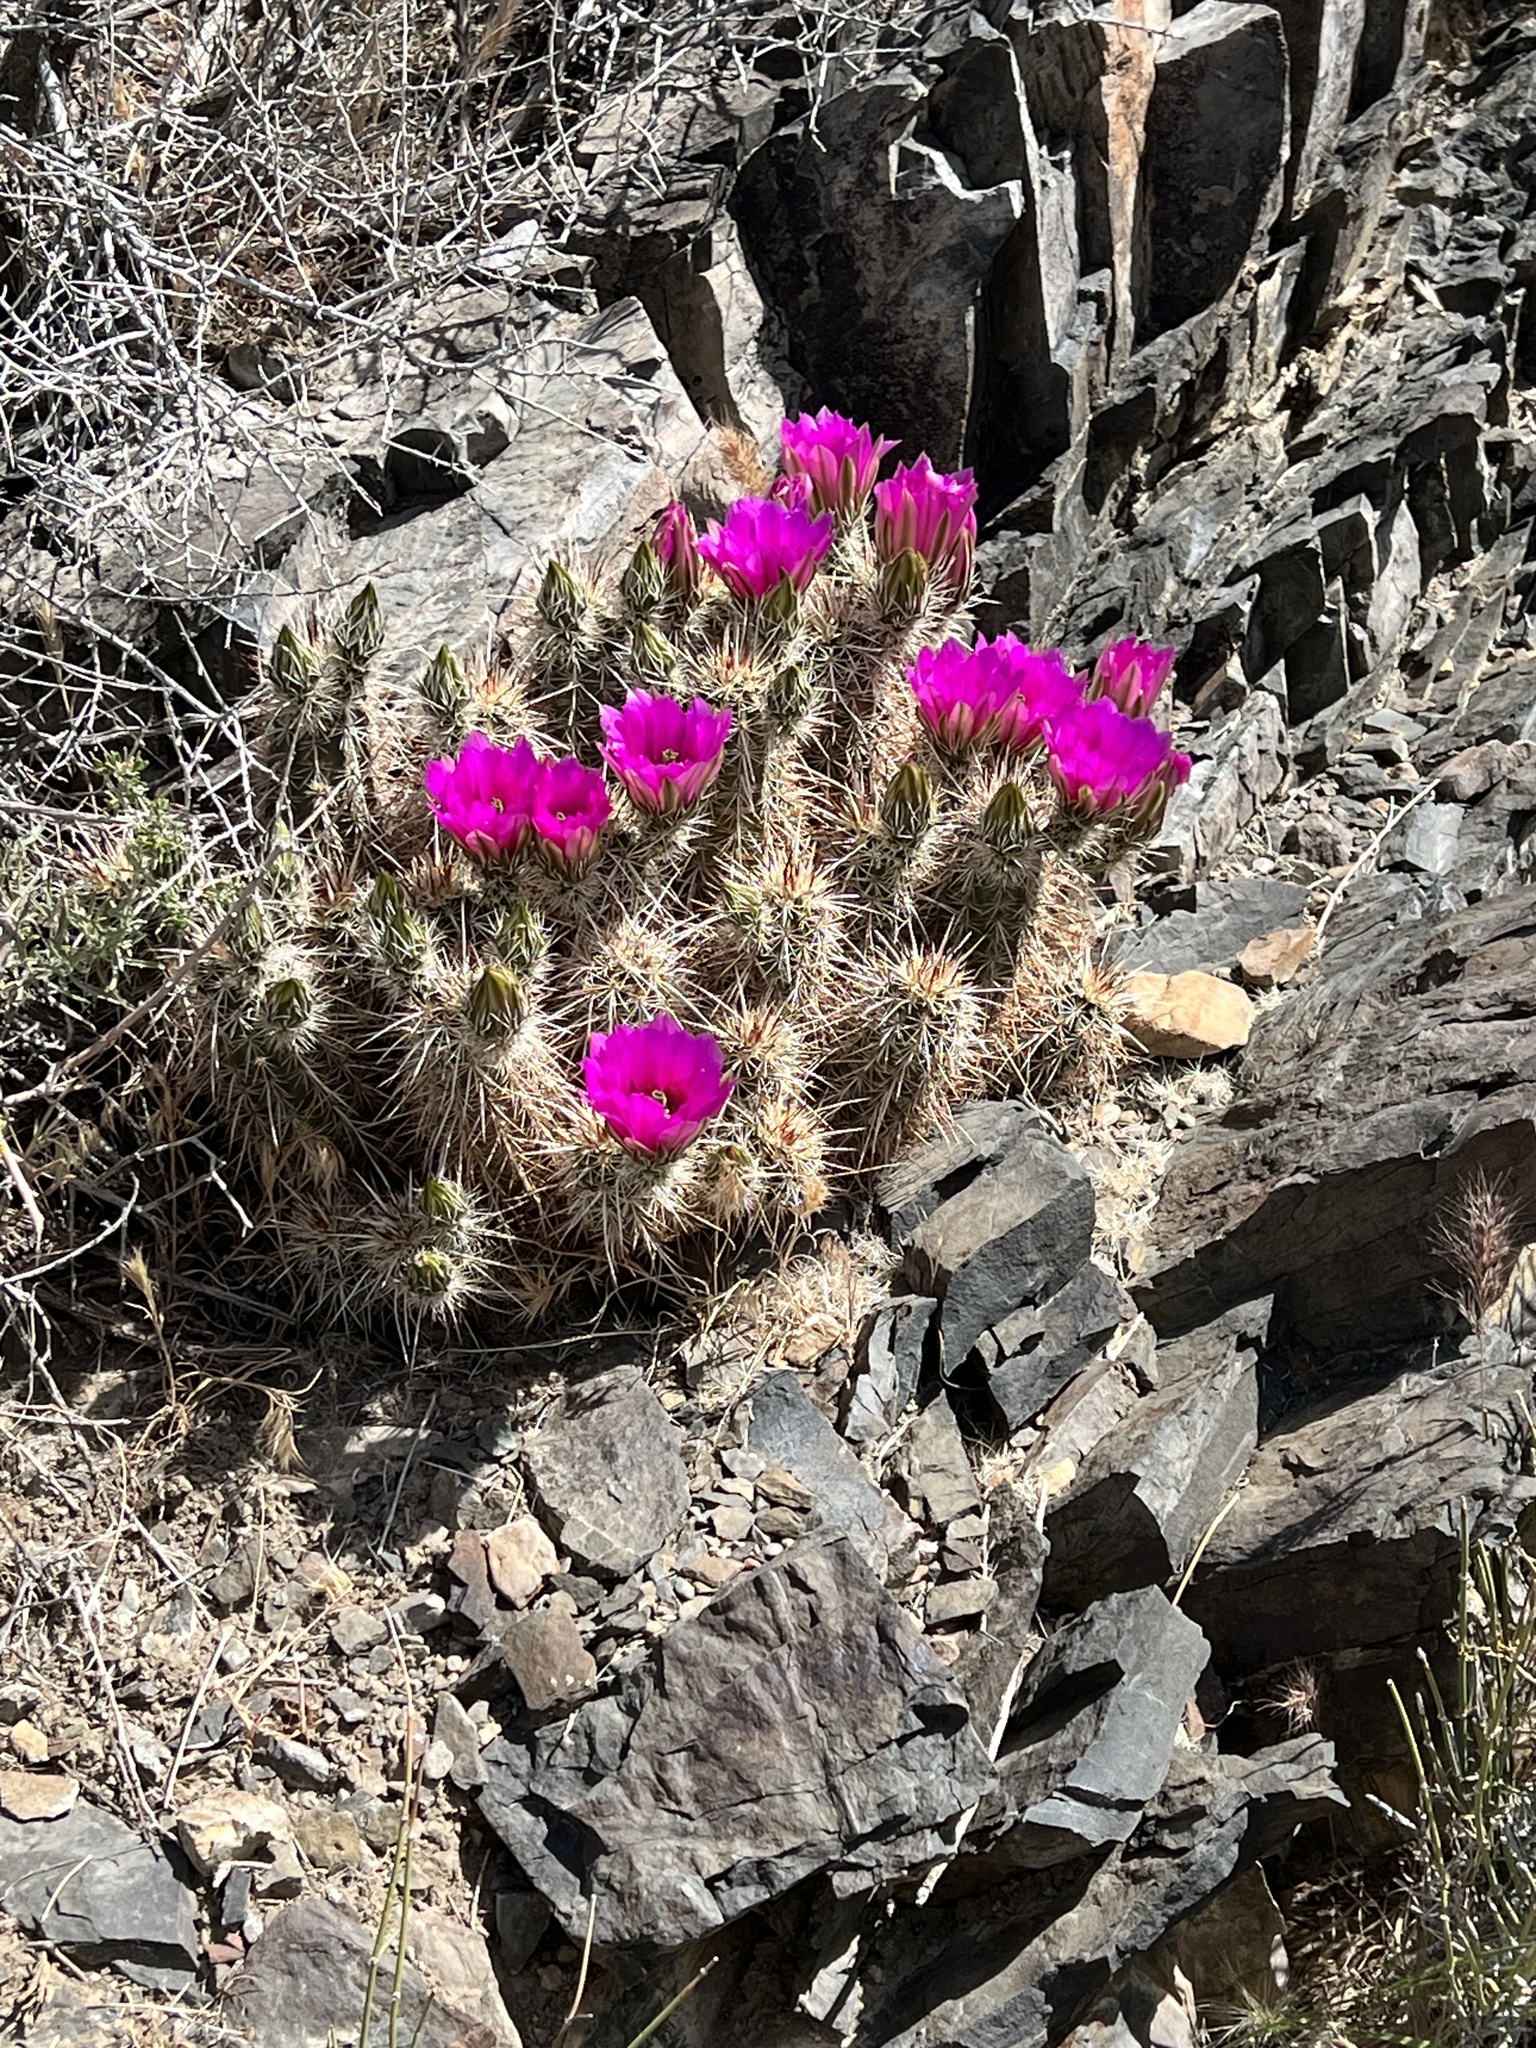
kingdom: Plantae
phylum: Tracheophyta
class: Magnoliopsida
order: Caryophyllales
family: Cactaceae
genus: Echinocereus
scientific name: Echinocereus engelmannii
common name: Engelmann's hedgehog cactus
